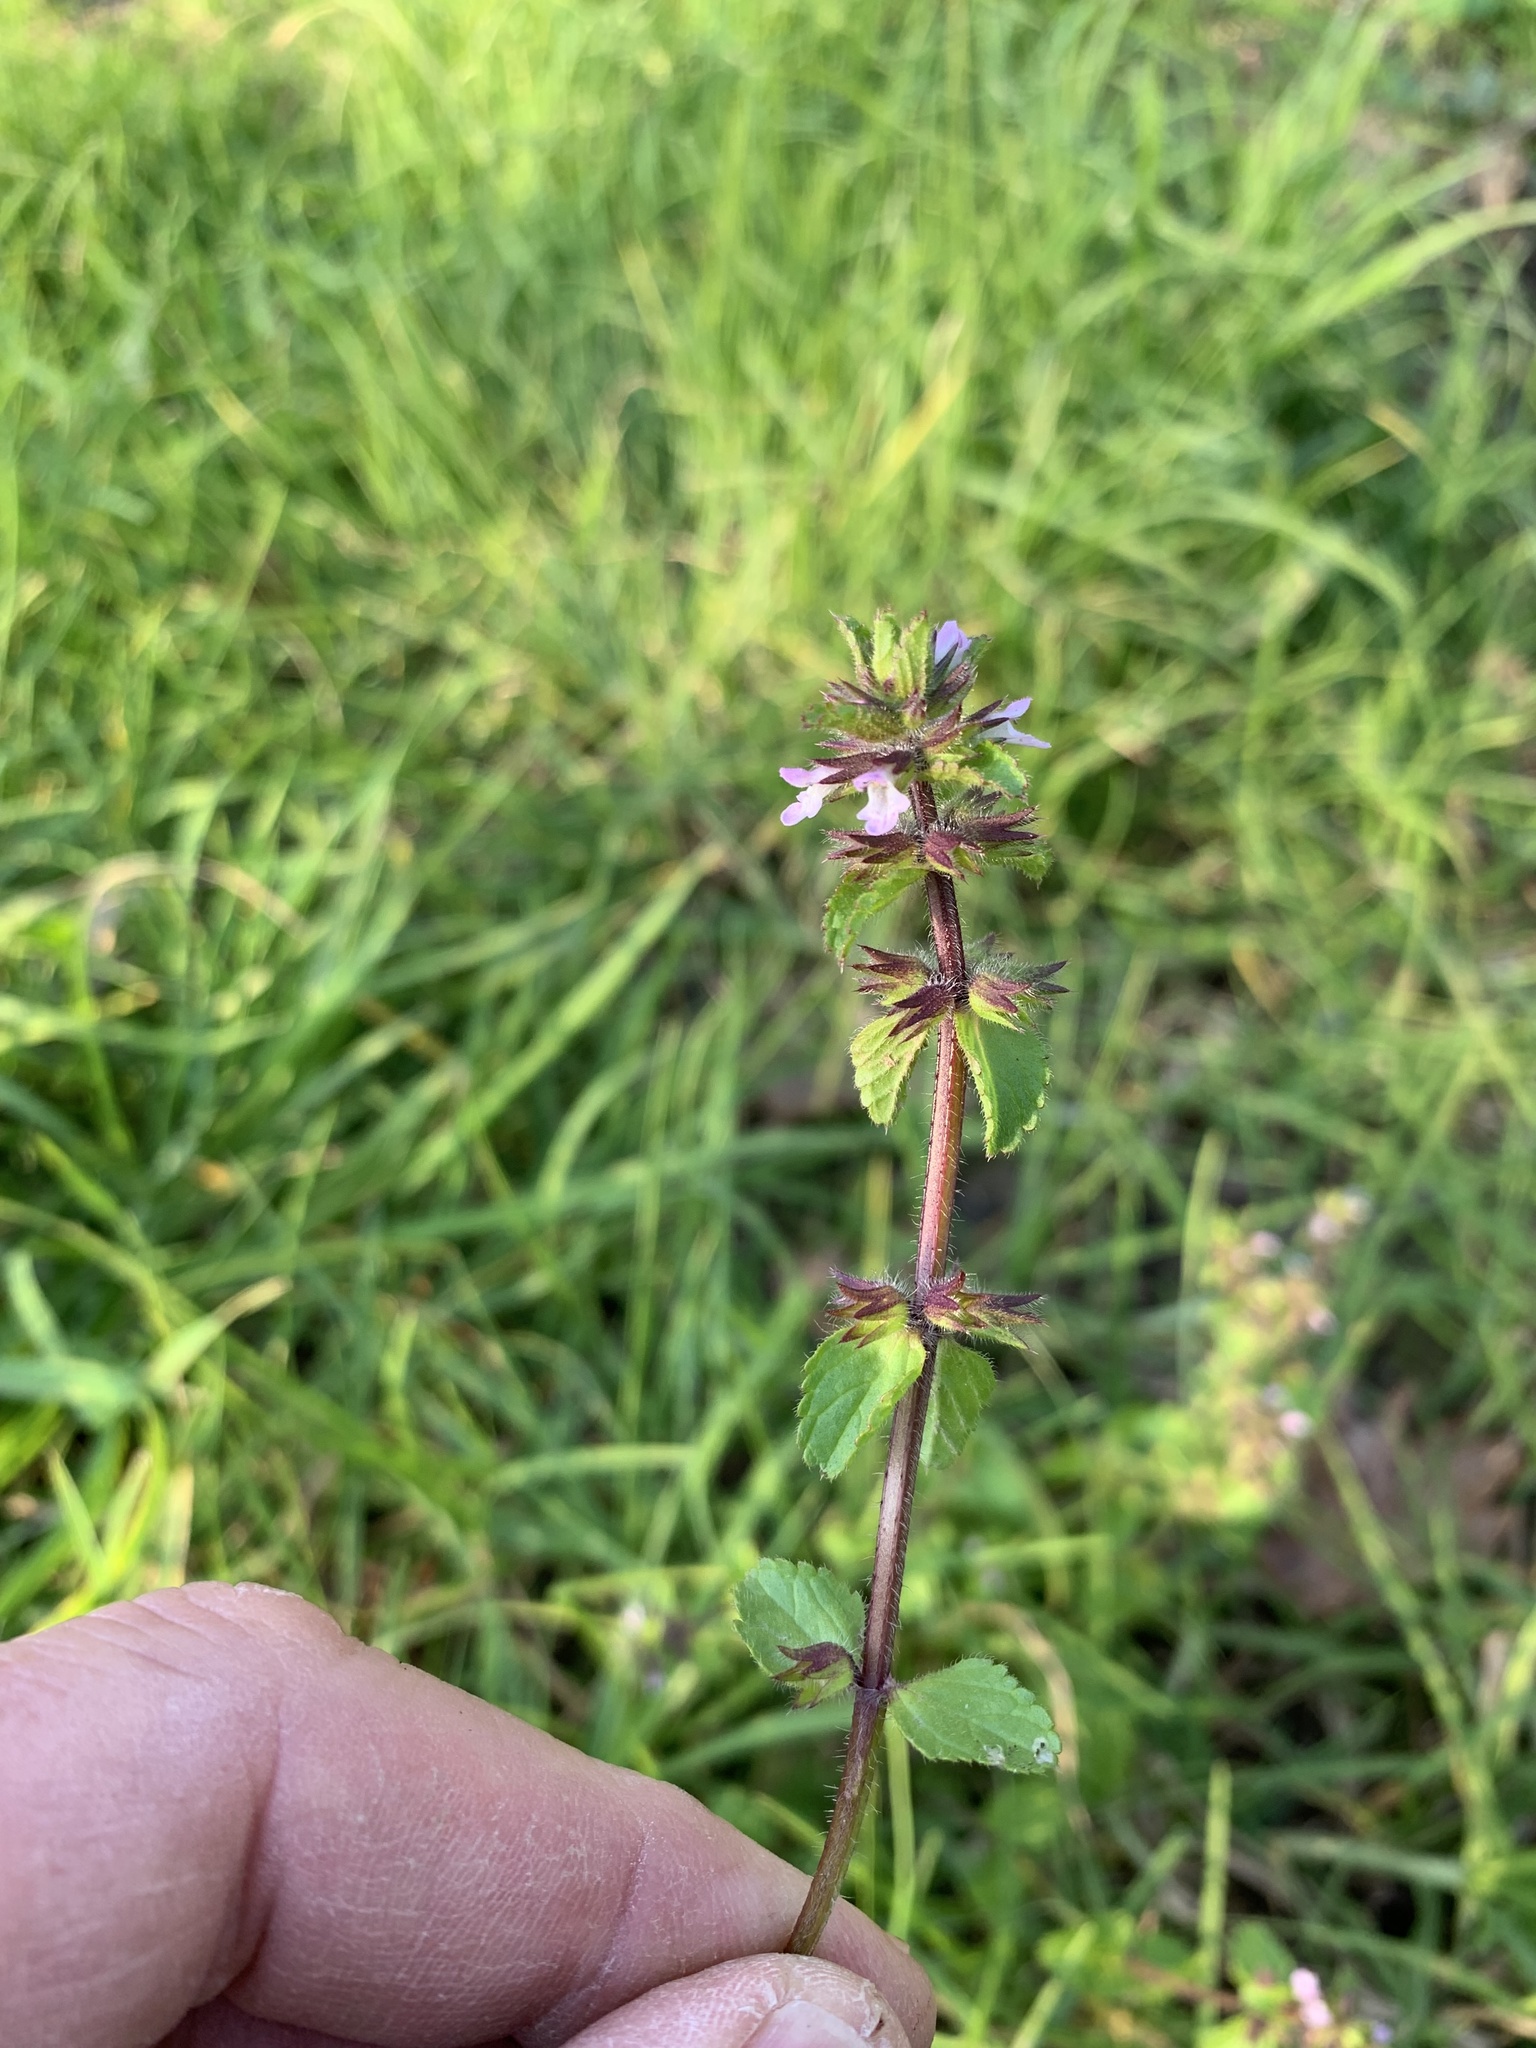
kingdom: Plantae
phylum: Tracheophyta
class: Magnoliopsida
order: Lamiales
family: Lamiaceae
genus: Stachys
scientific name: Stachys arvensis
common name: Field woundwort
